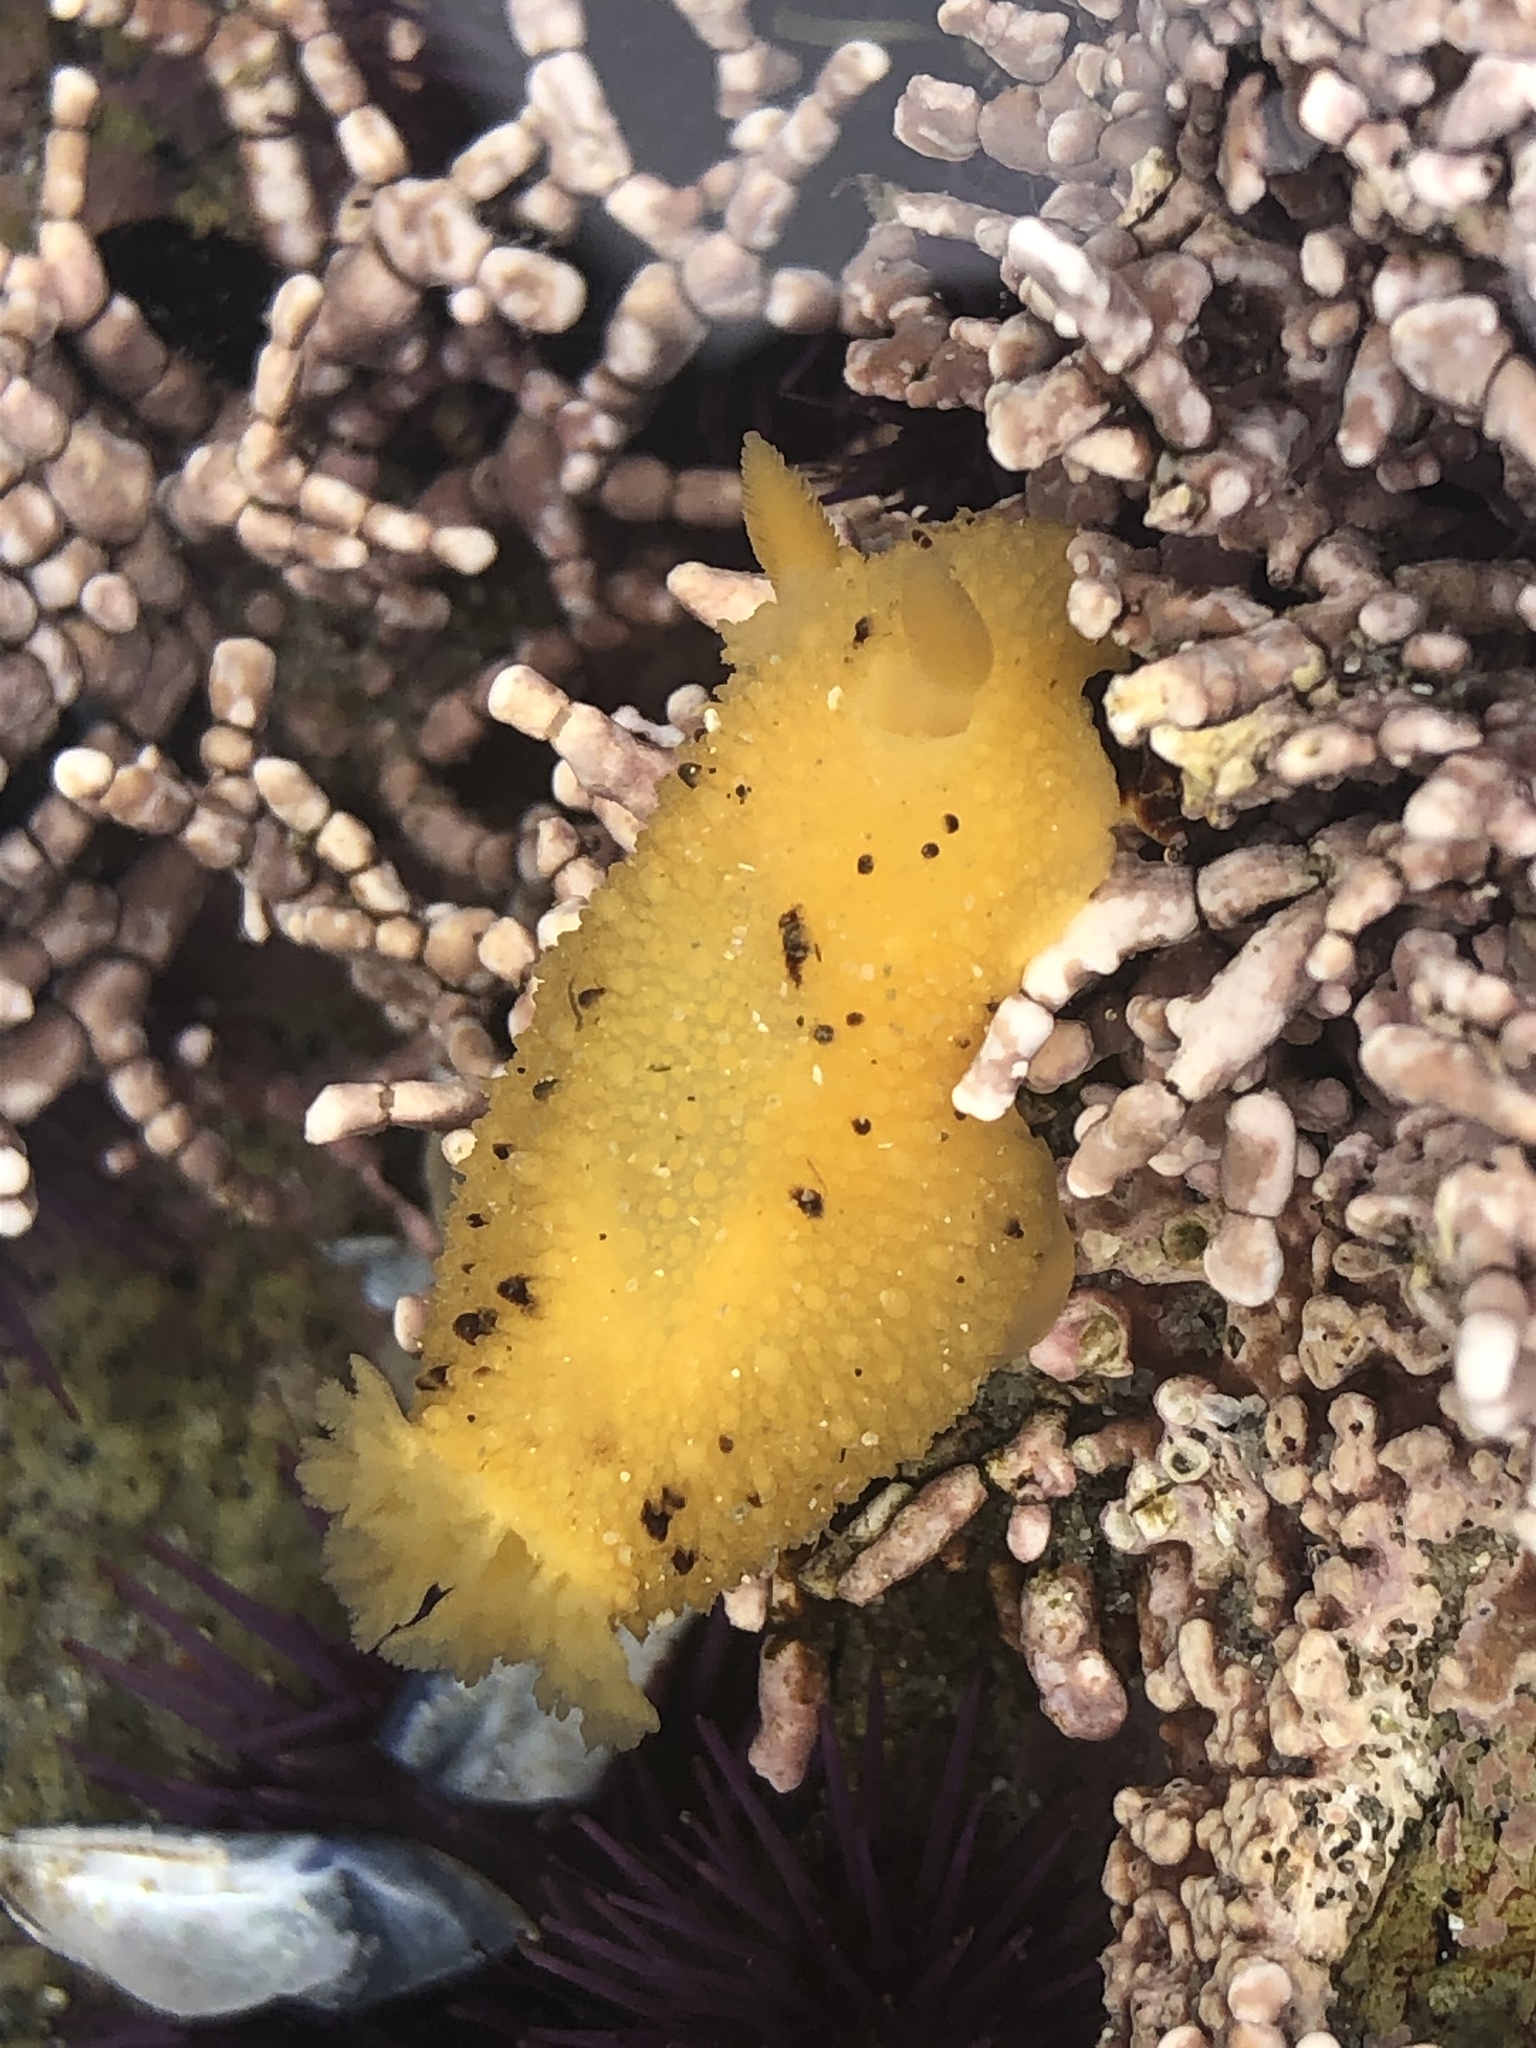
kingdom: Animalia
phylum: Mollusca
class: Gastropoda
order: Nudibranchia
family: Dorididae
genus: Doris
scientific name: Doris montereyensis
